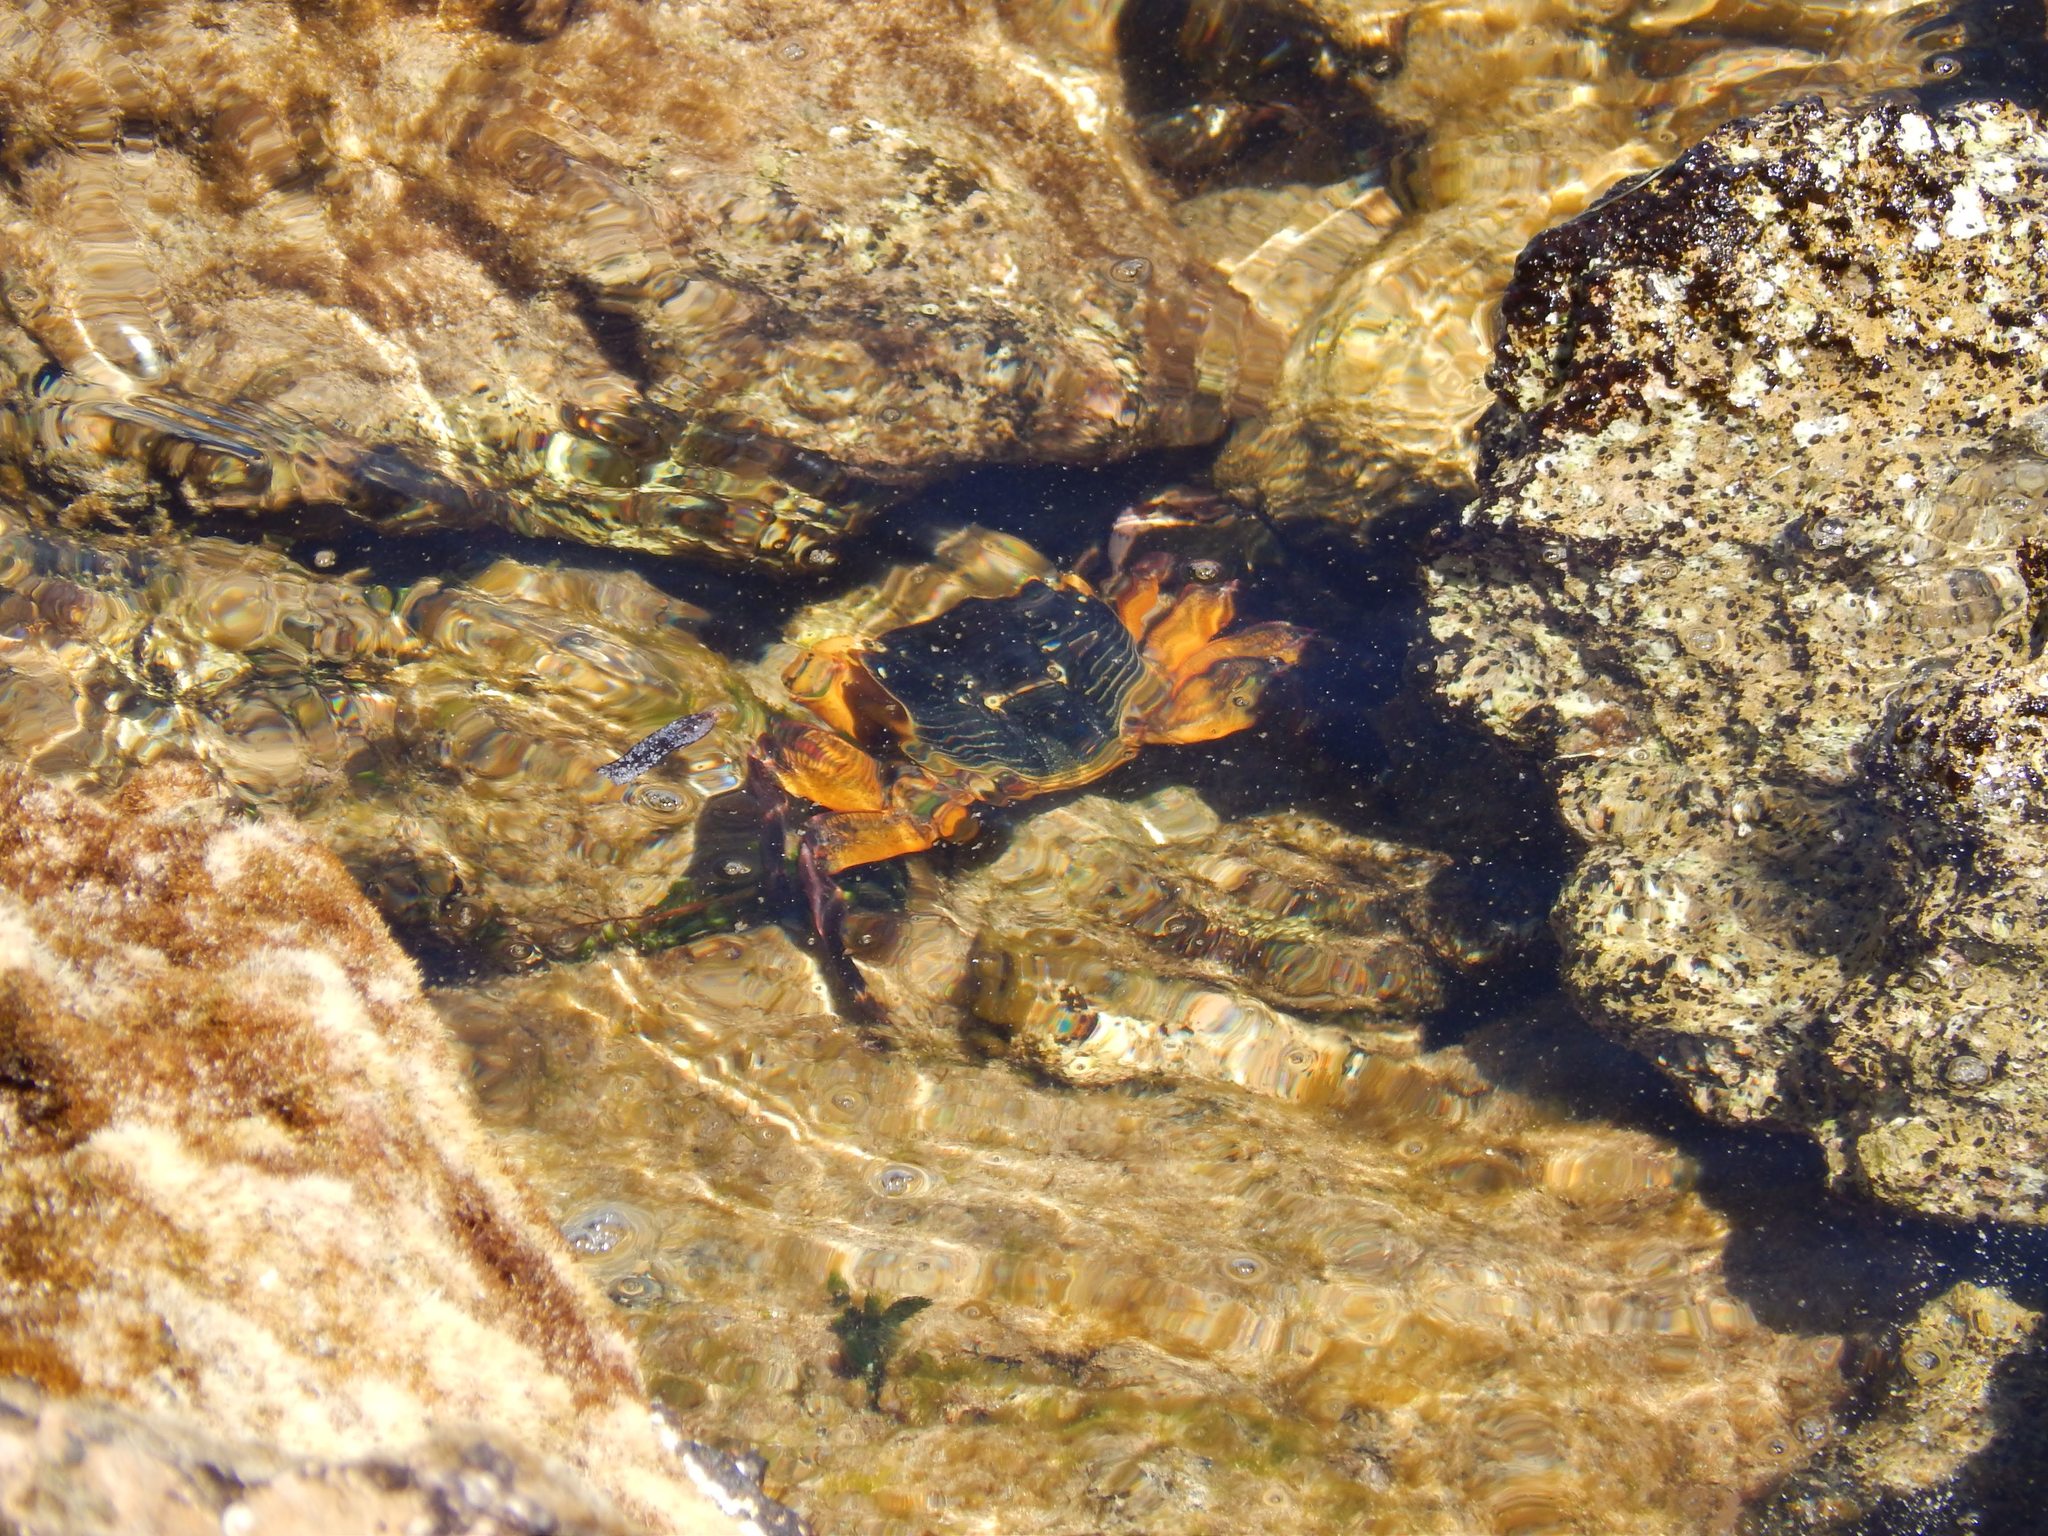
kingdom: Animalia
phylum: Arthropoda
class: Malacostraca
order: Decapoda
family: Grapsidae
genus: Leptograpsus
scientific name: Leptograpsus variegatus
